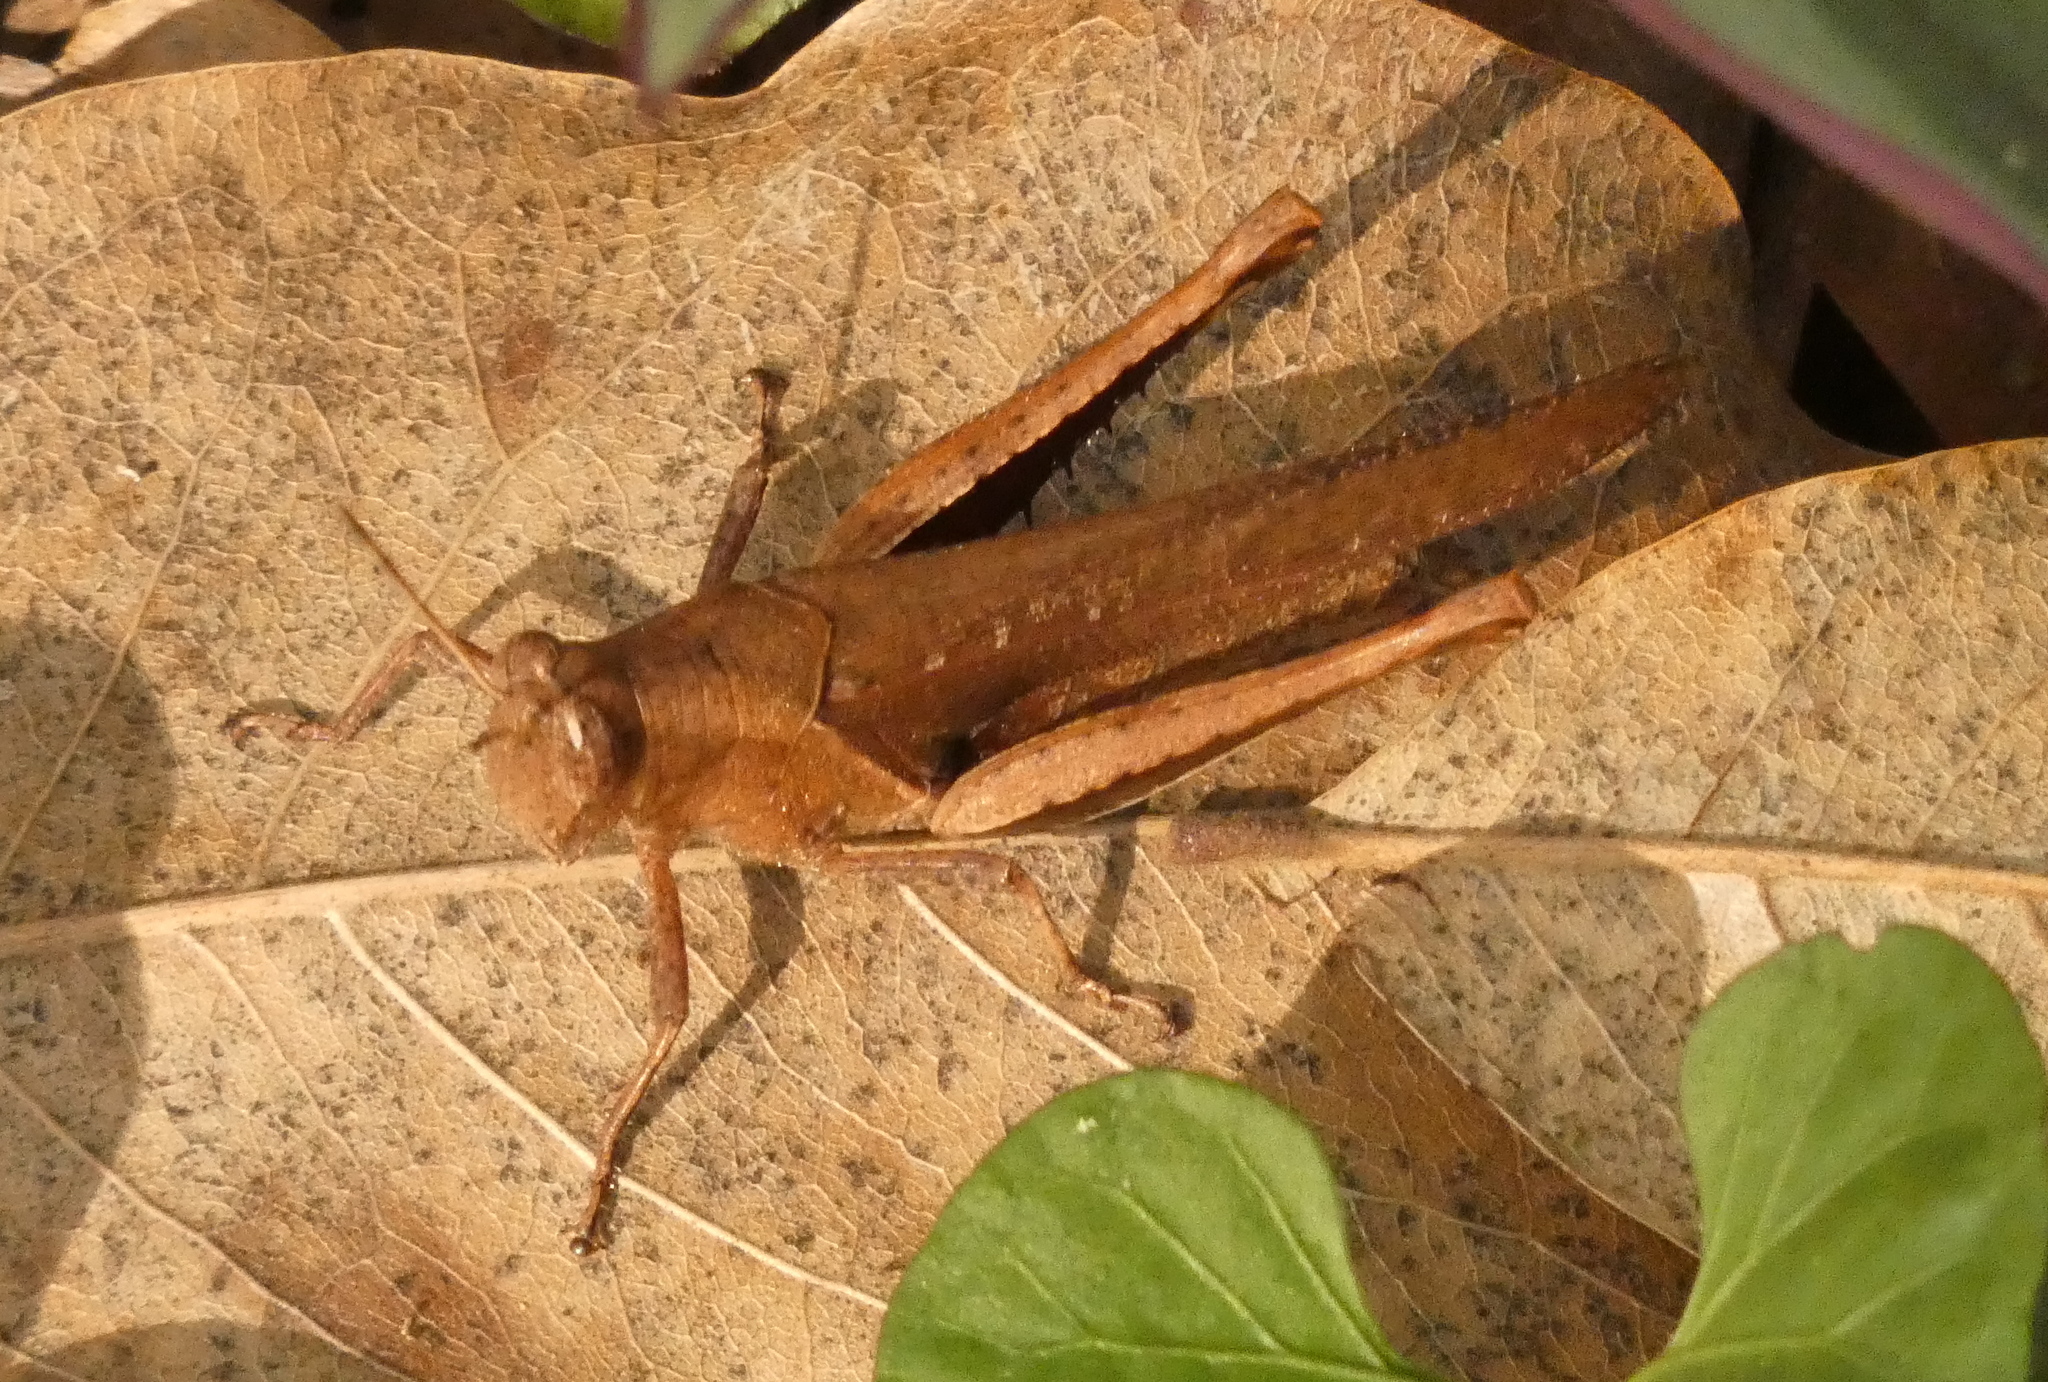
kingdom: Animalia
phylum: Arthropoda
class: Insecta
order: Orthoptera
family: Acrididae
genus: Abracris
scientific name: Abracris flavolineata
